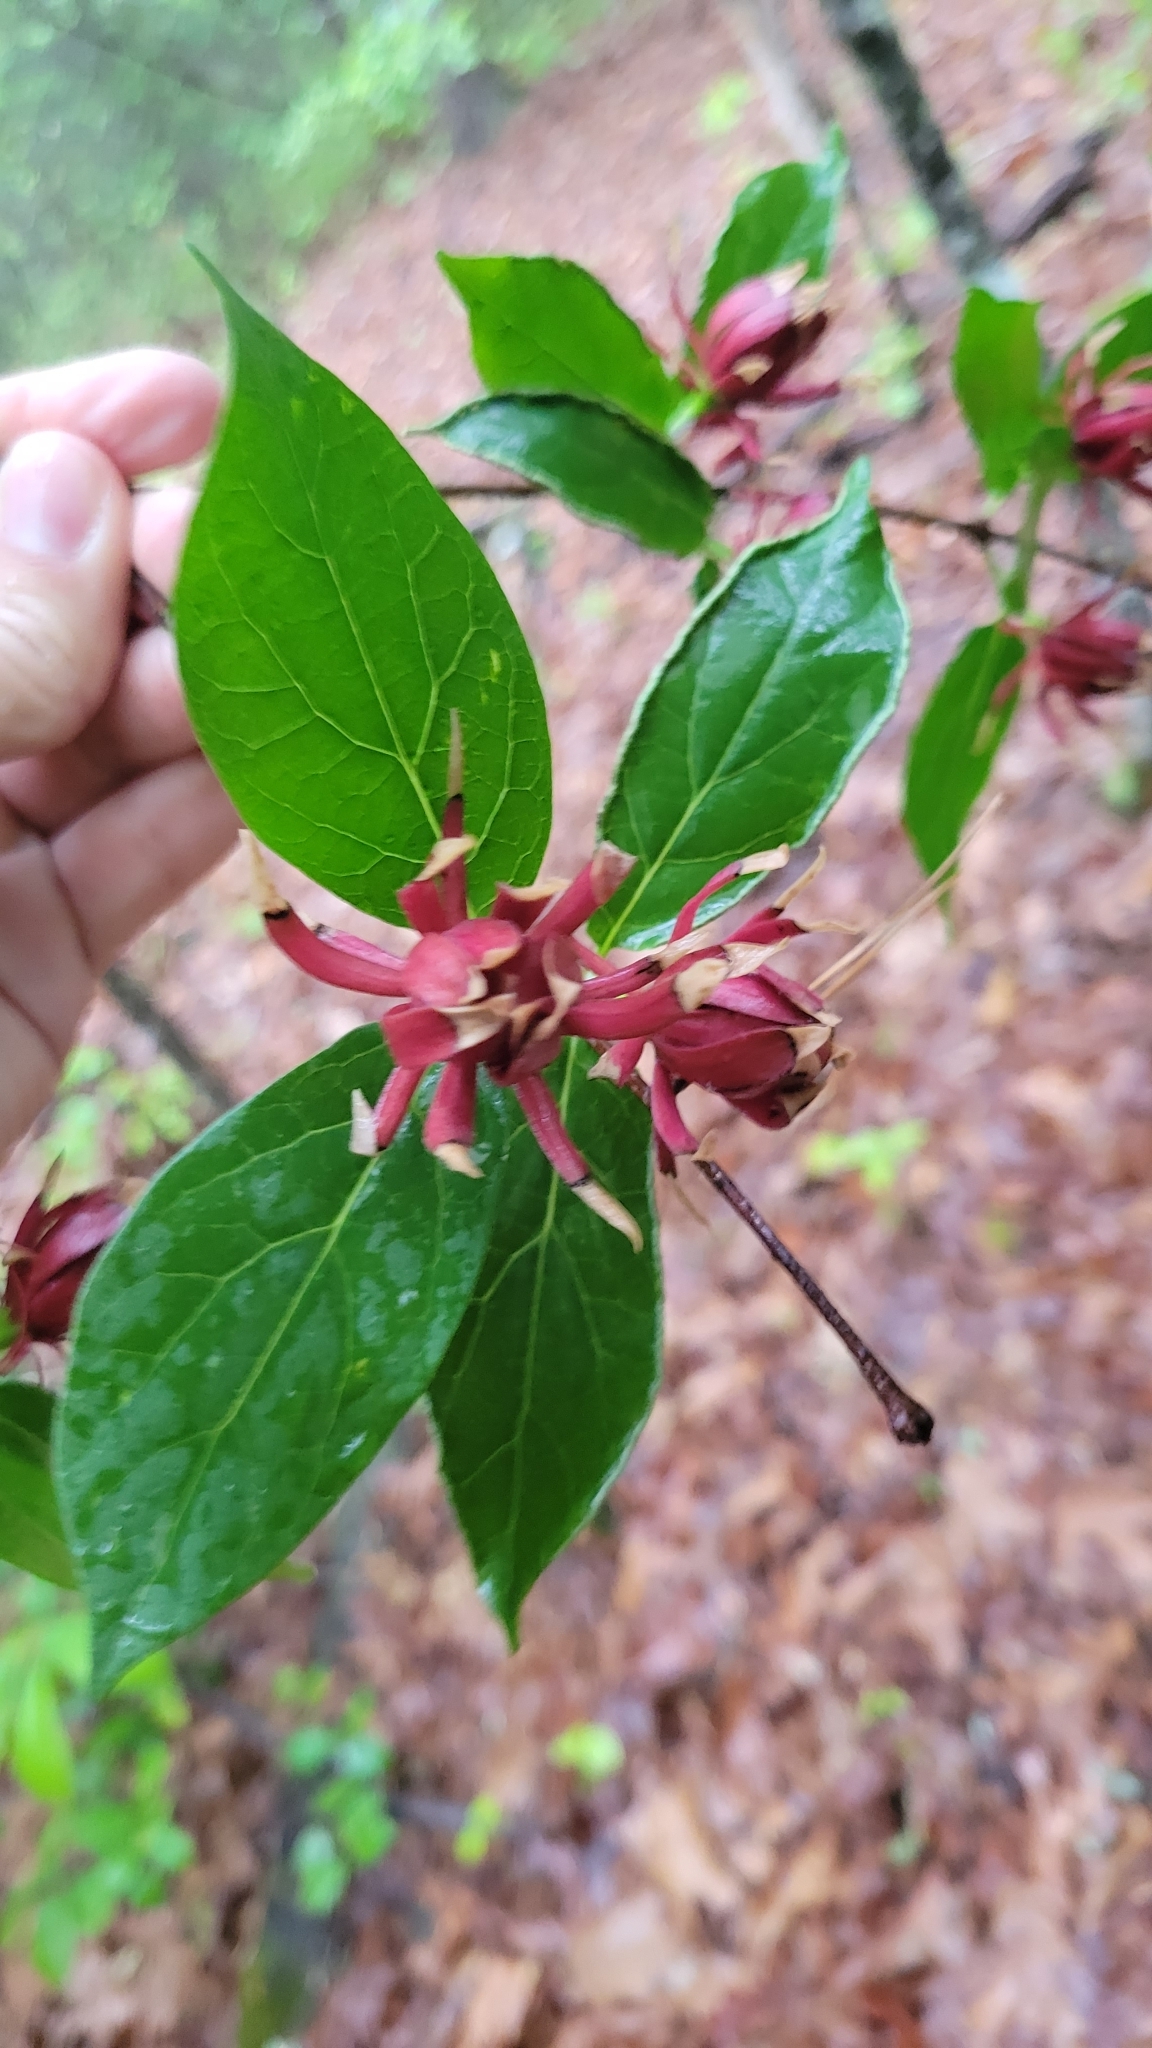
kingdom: Plantae
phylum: Tracheophyta
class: Magnoliopsida
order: Laurales
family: Calycanthaceae
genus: Calycanthus
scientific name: Calycanthus floridus
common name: Carolina-allspice
